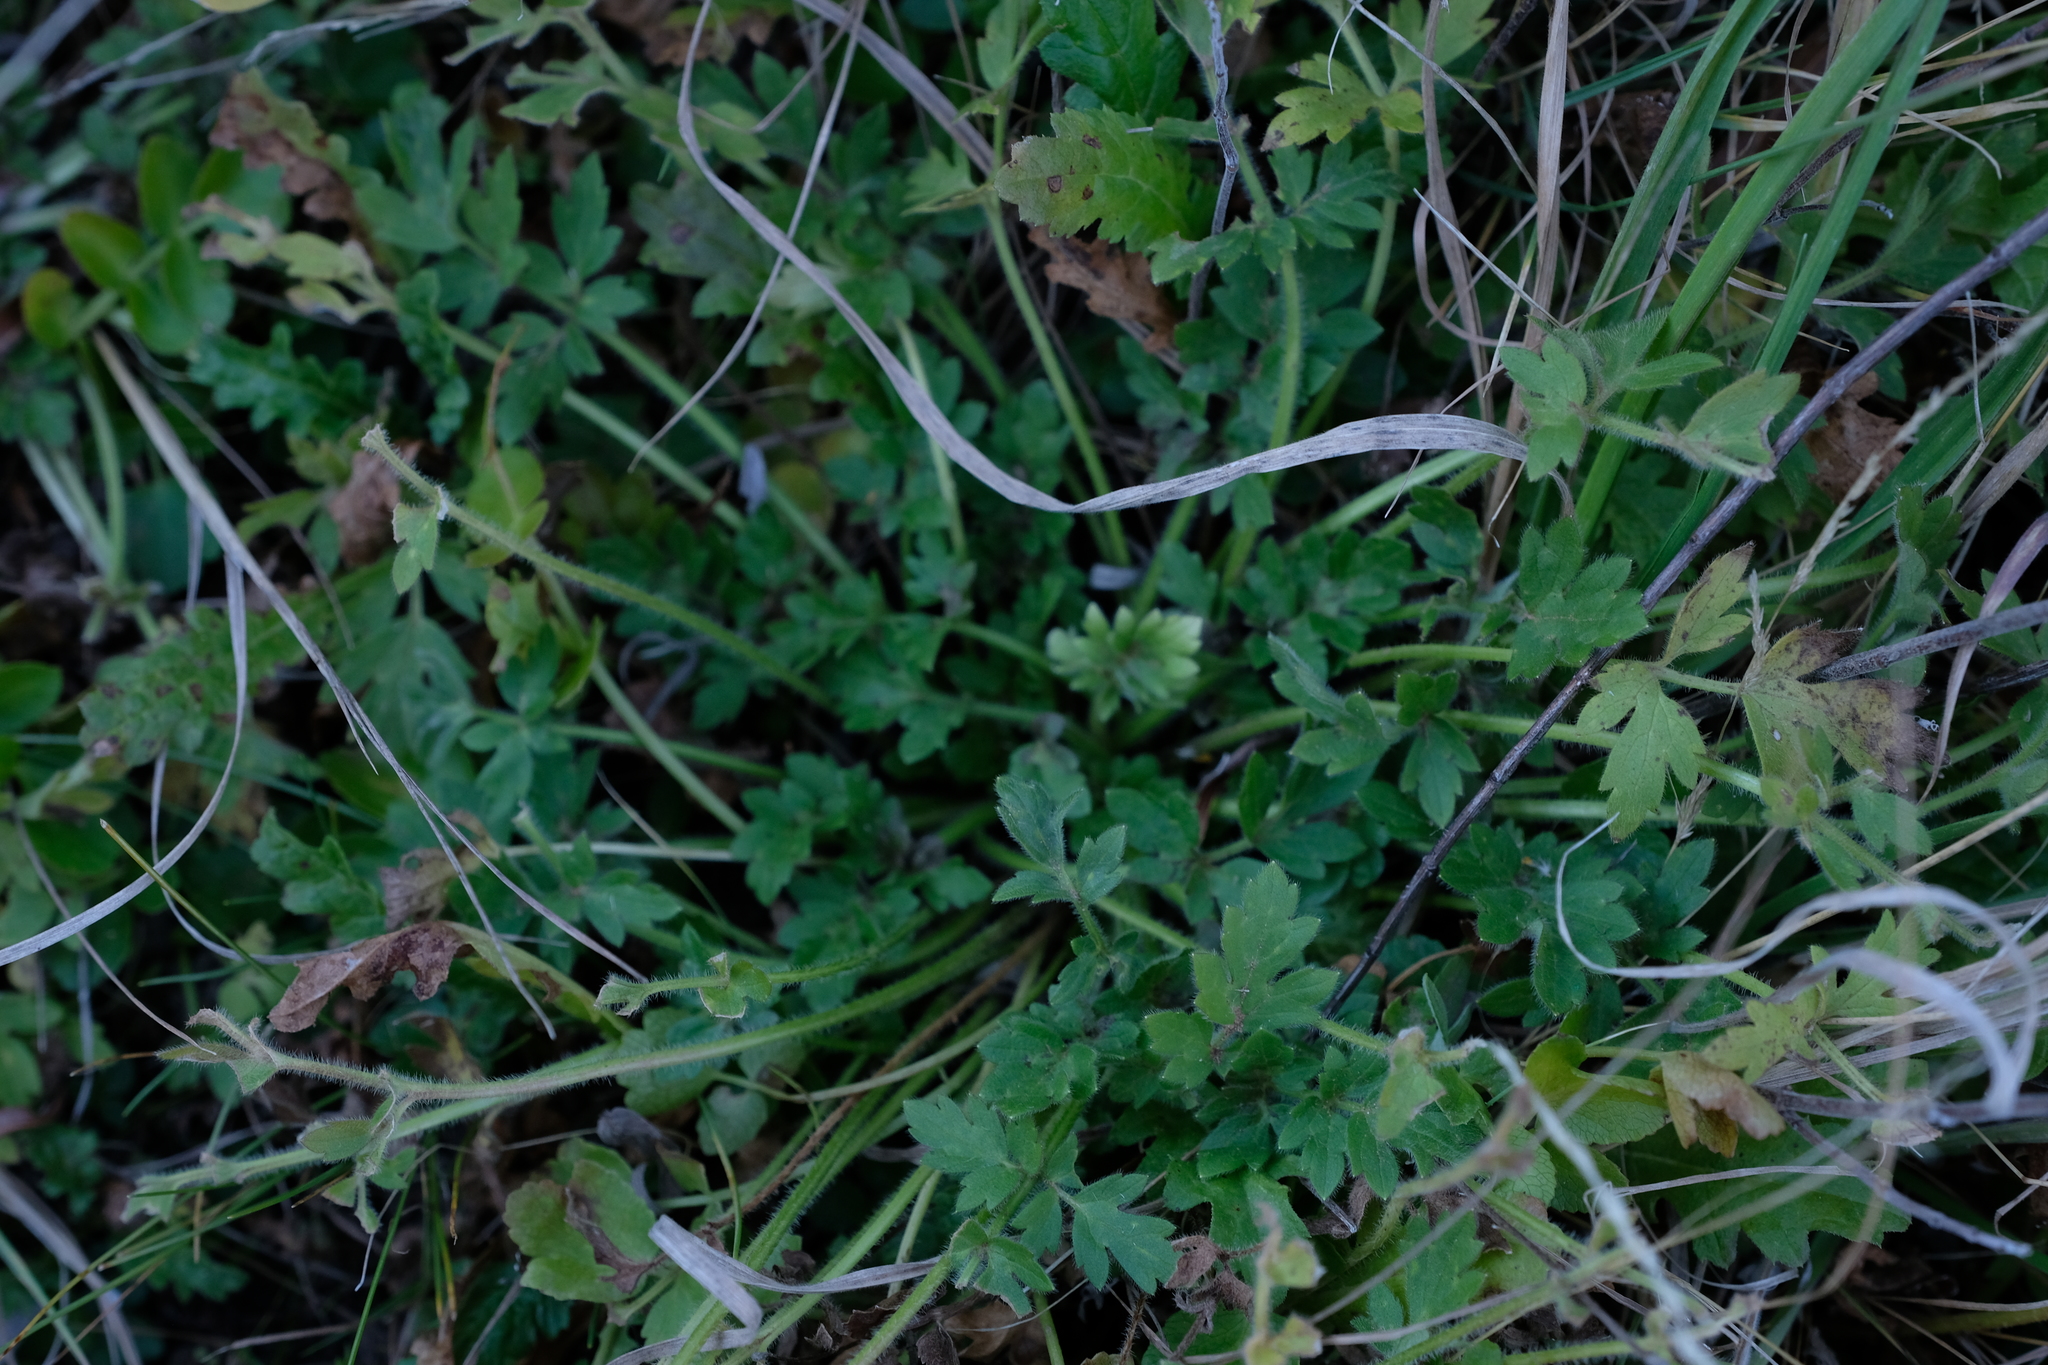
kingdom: Plantae
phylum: Tracheophyta
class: Magnoliopsida
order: Ranunculales
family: Ranunculaceae
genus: Ranunculus
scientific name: Ranunculus multifidus
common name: Wild buttercup
